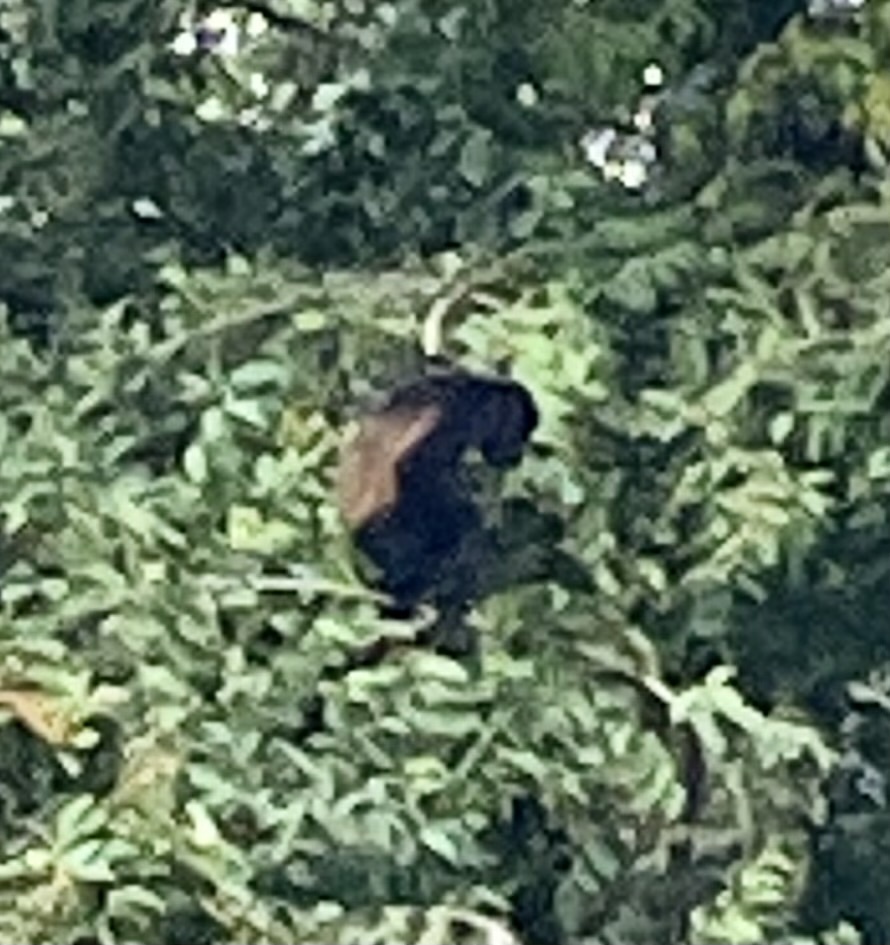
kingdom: Animalia
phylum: Chordata
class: Mammalia
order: Primates
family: Atelidae
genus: Alouatta
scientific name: Alouatta palliata
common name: Mantled howler
